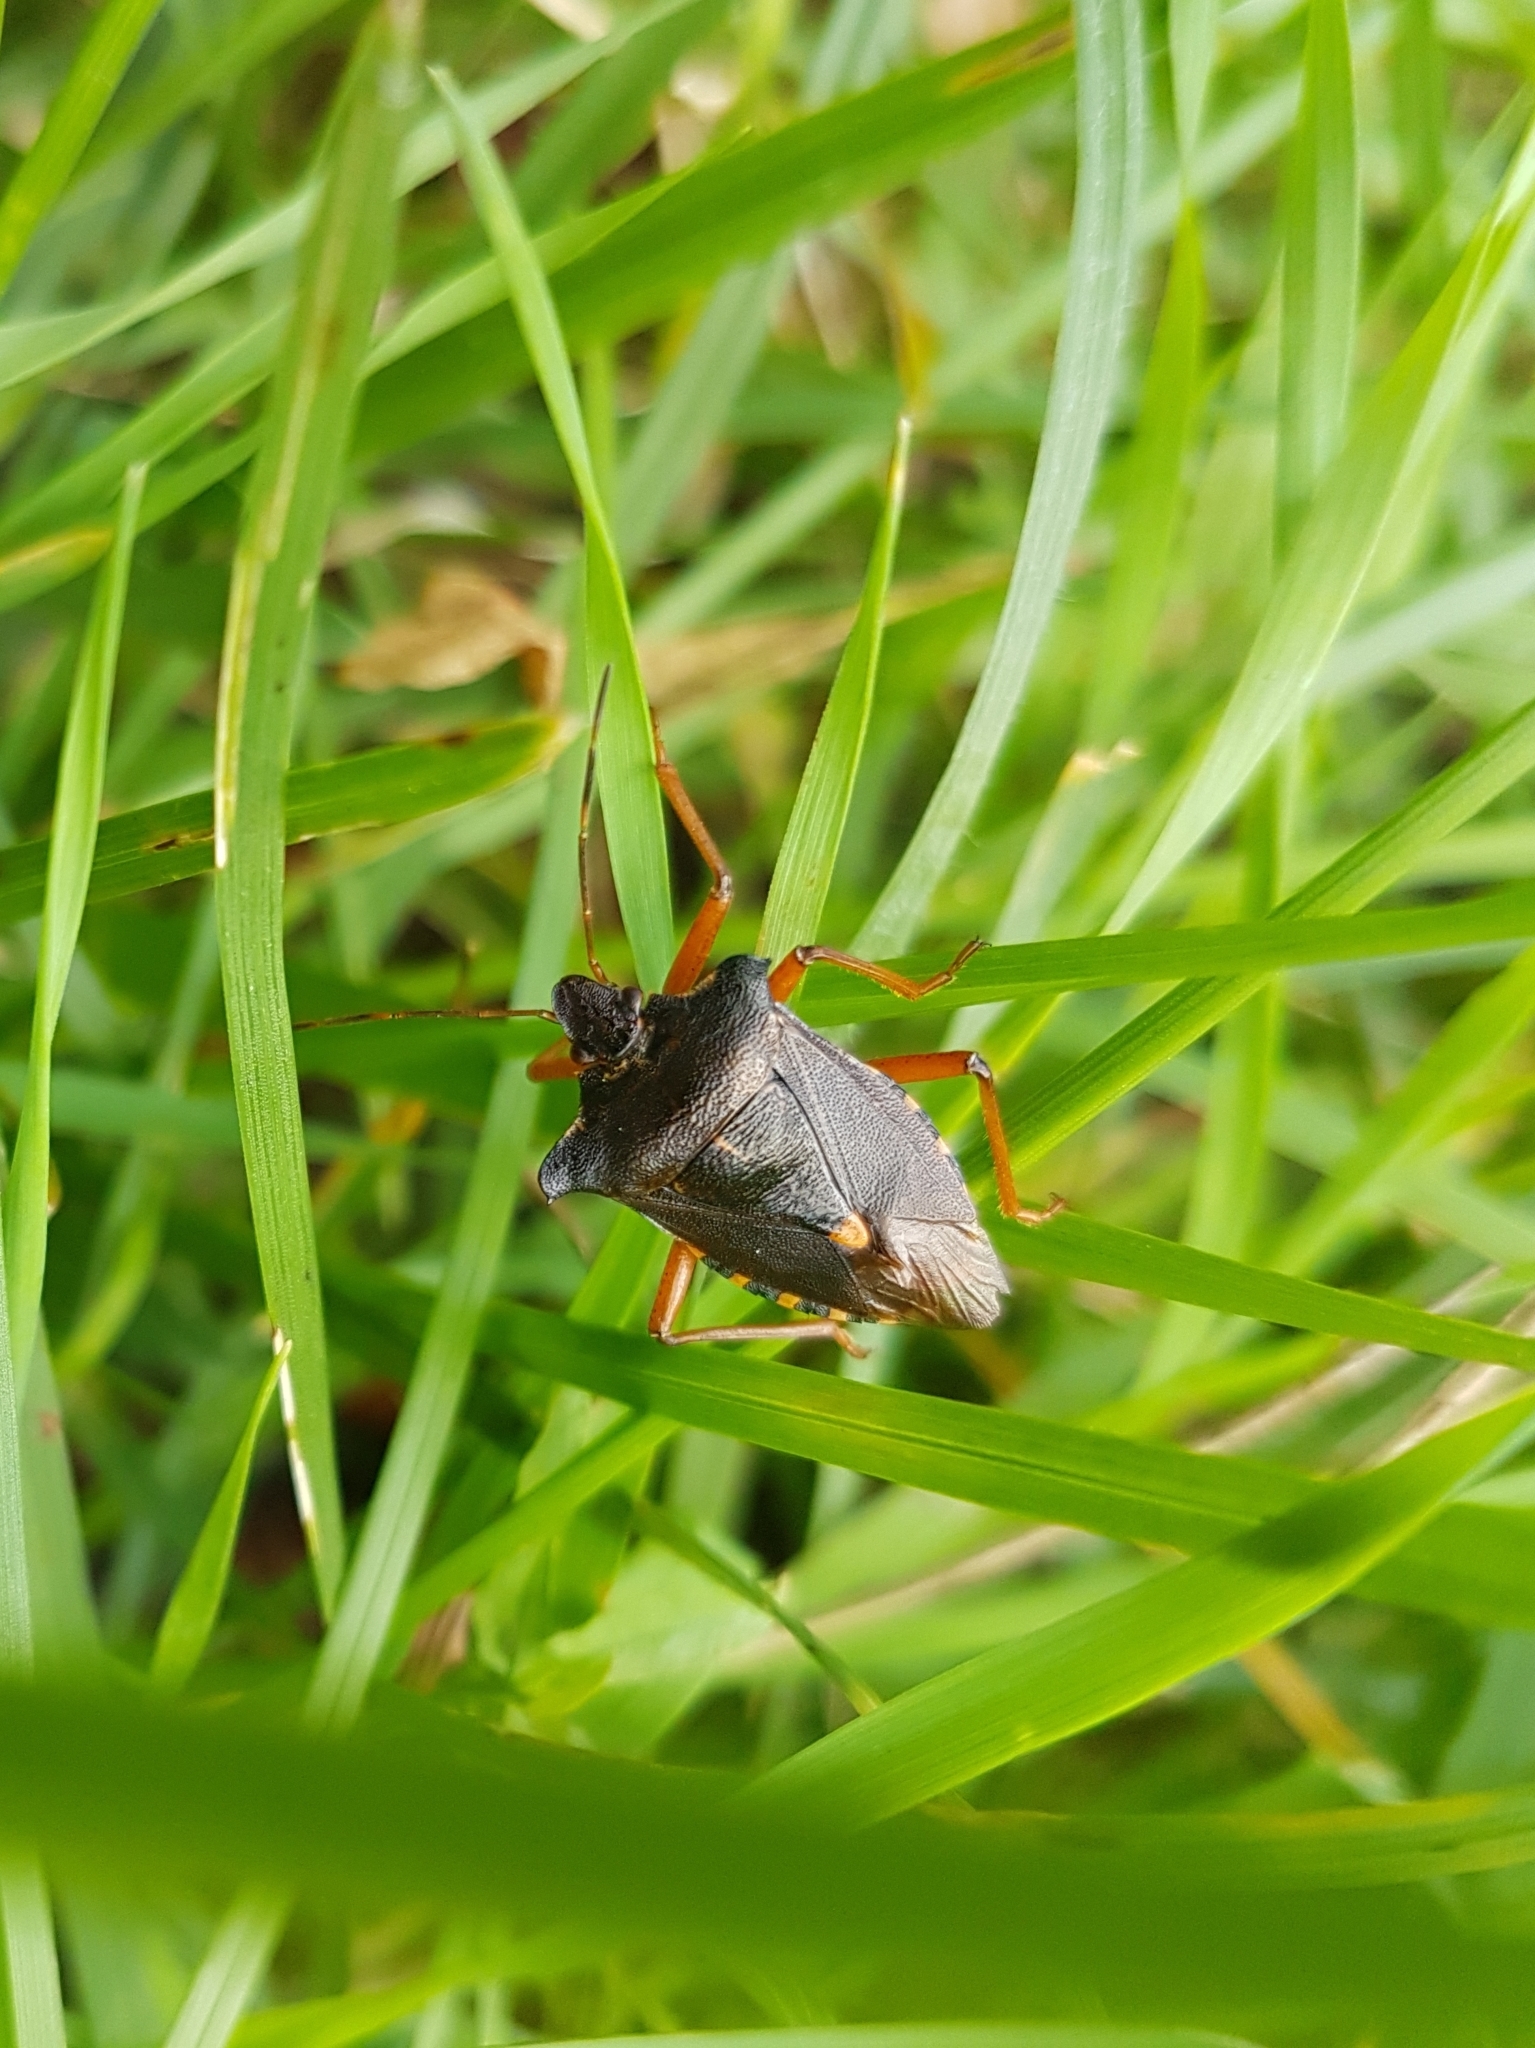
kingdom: Animalia
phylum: Arthropoda
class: Insecta
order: Hemiptera
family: Pentatomidae
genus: Pentatoma
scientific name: Pentatoma rufipes
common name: Forest bug
